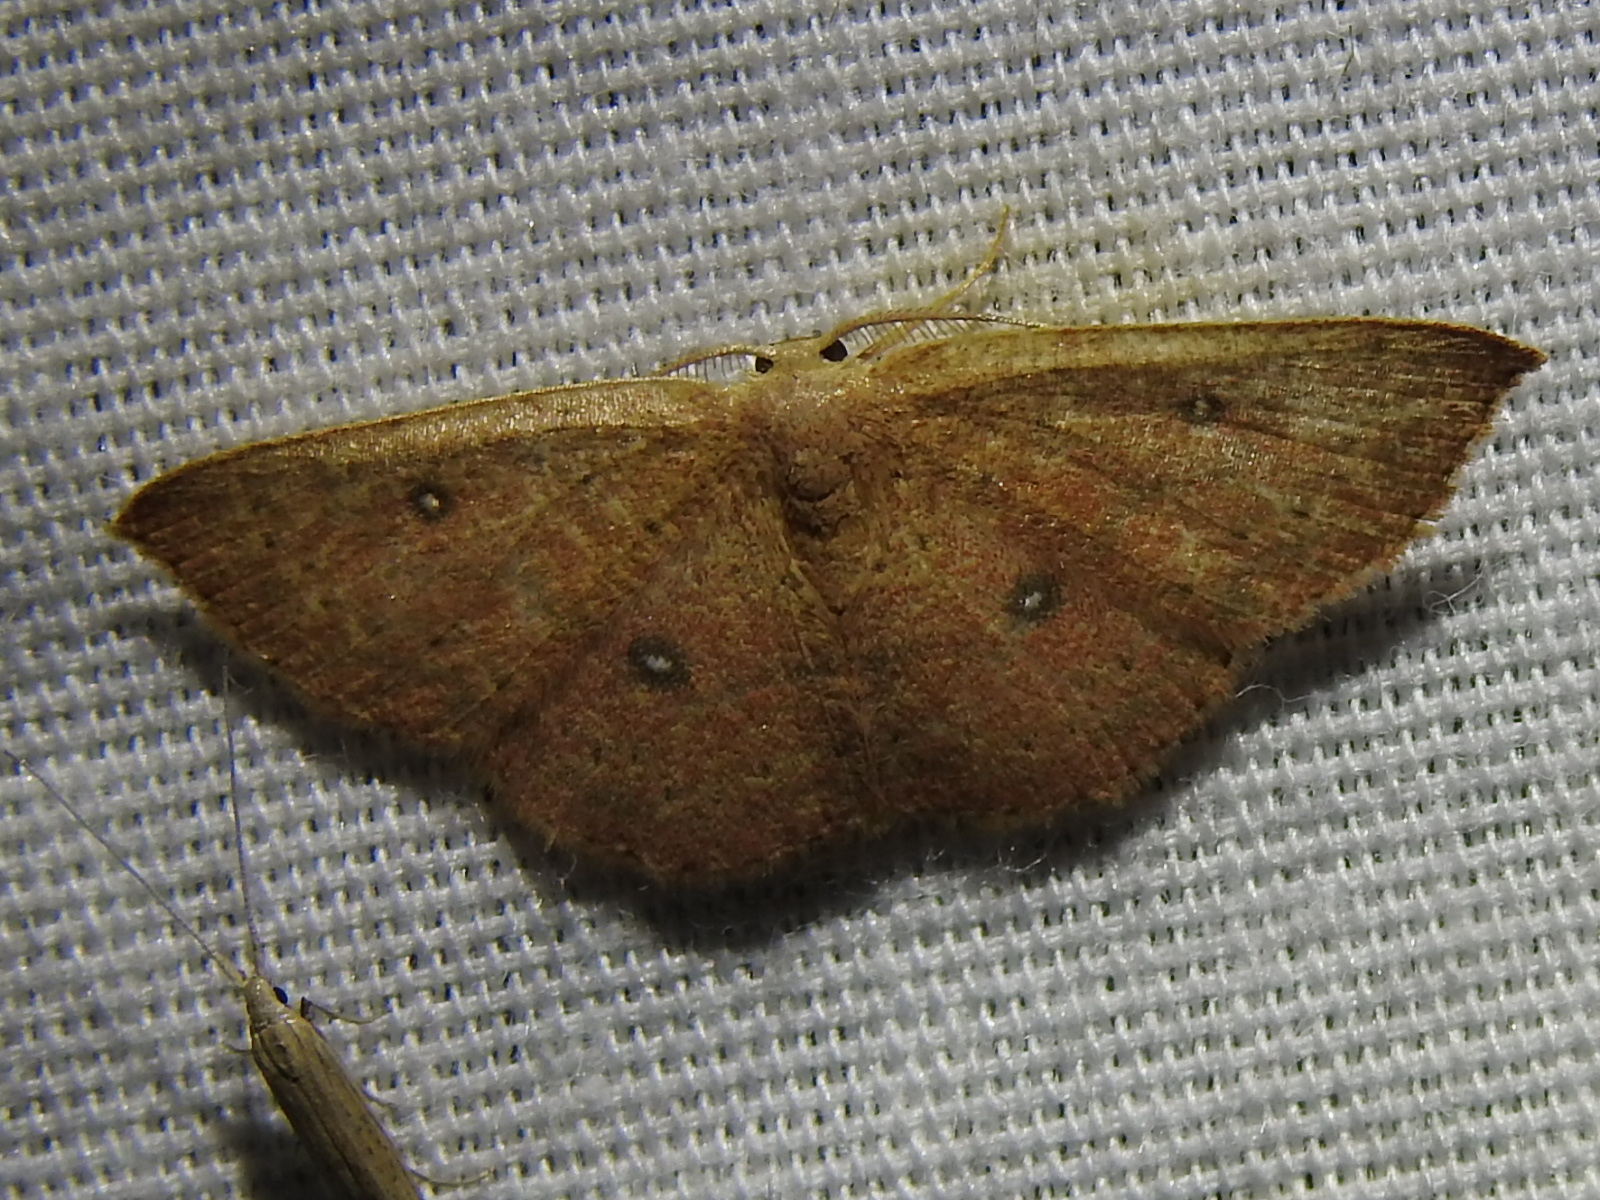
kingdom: Animalia
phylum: Arthropoda
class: Insecta
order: Lepidoptera
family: Geometridae
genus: Cyclophora
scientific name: Cyclophora packardi
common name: Packard's wave
